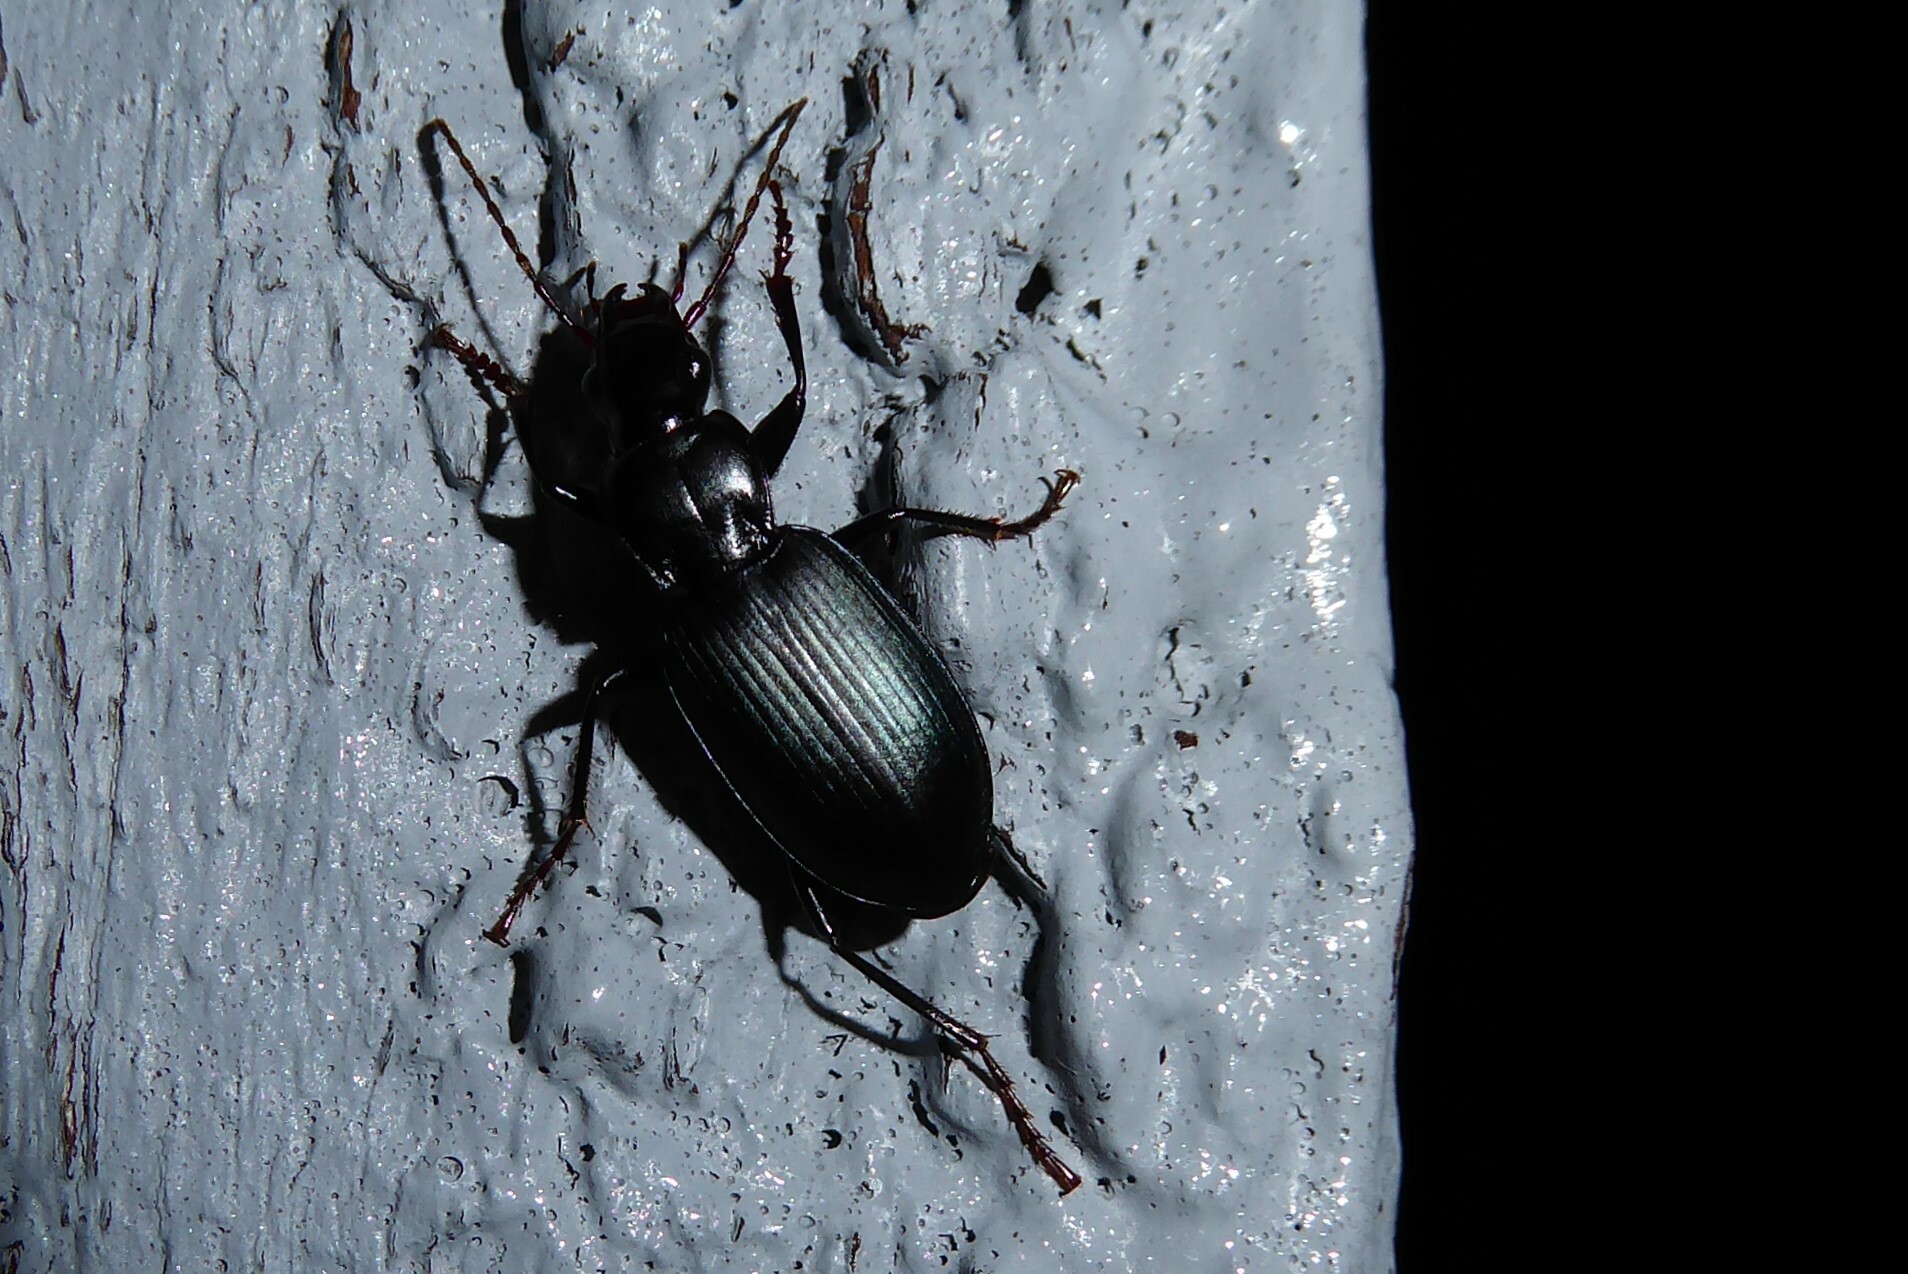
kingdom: Animalia
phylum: Arthropoda
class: Insecta
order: Coleoptera
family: Carabidae
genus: Laemostenus
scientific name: Laemostenus complanatus
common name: Cosmopolitan ground beetle
